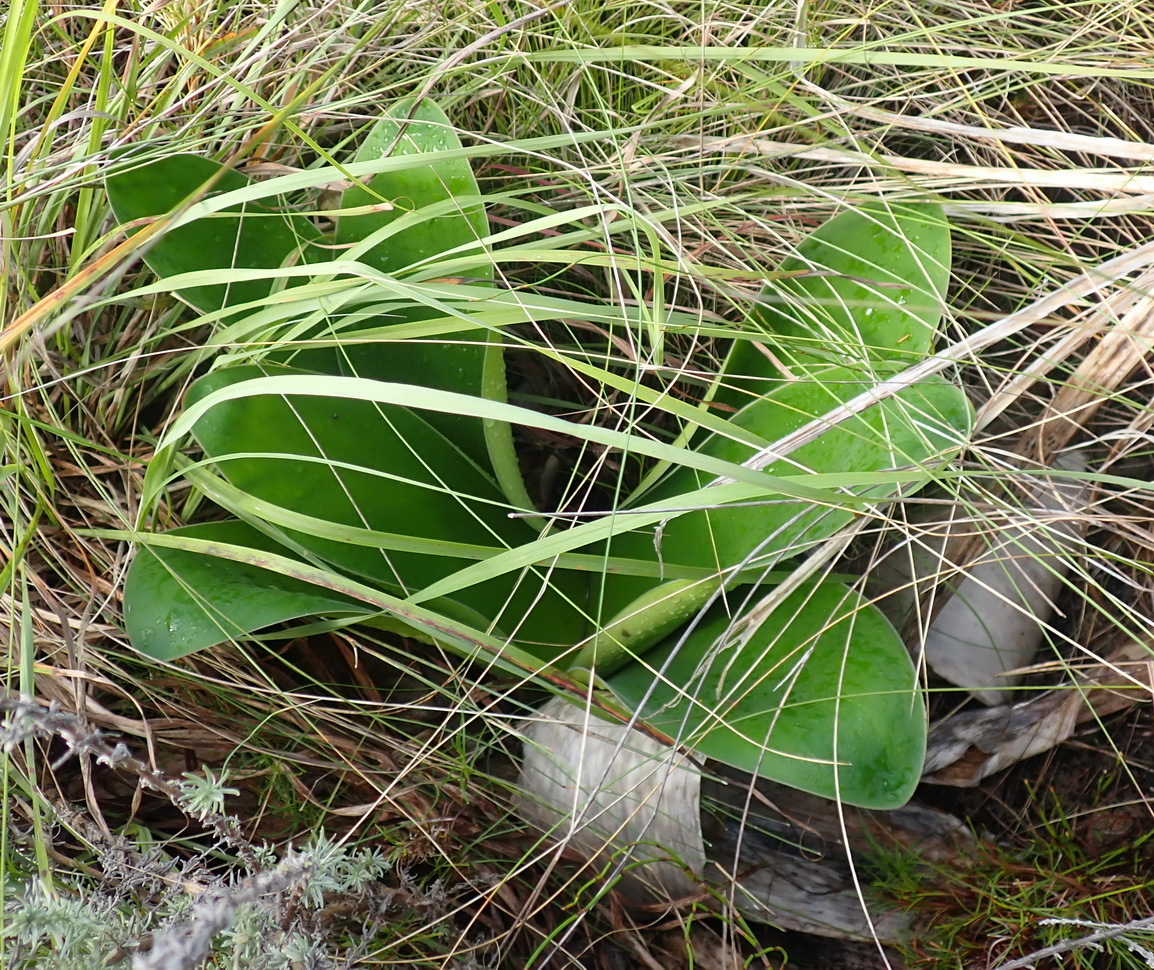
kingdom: Plantae
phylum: Tracheophyta
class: Liliopsida
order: Asparagales
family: Amaryllidaceae
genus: Brunsvigia
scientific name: Brunsvigia orientalis
